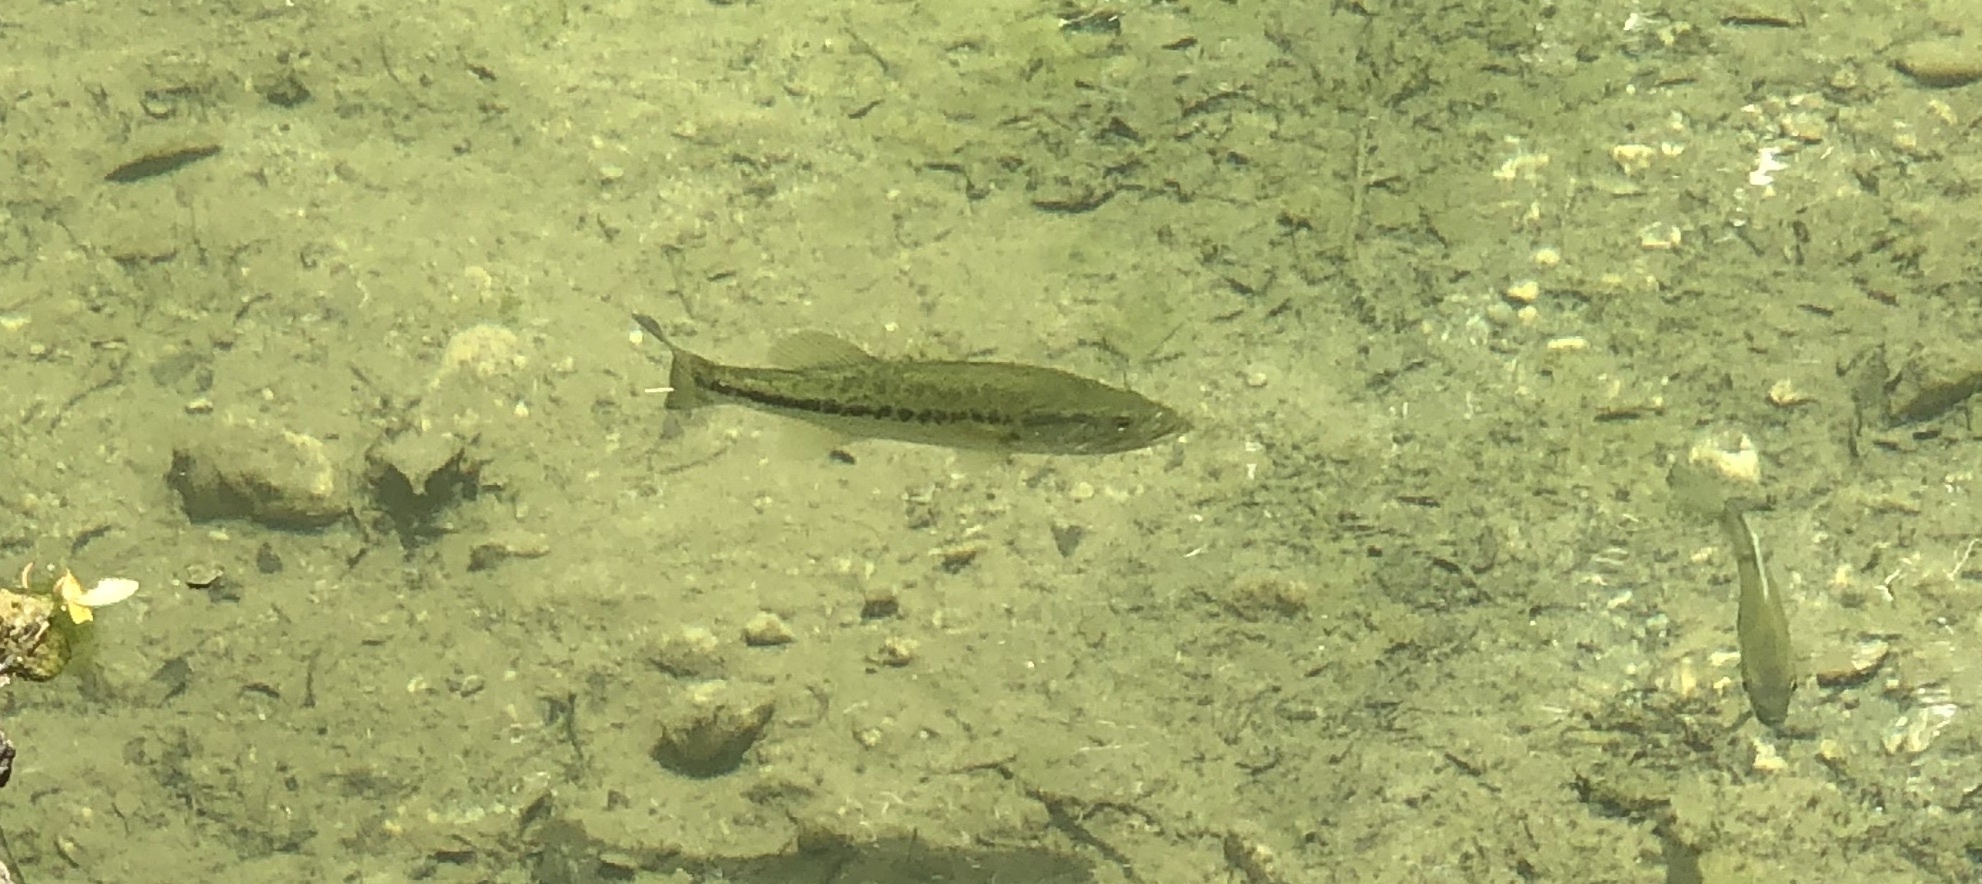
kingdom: Animalia
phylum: Chordata
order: Perciformes
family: Centrarchidae
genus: Micropterus
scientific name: Micropterus
